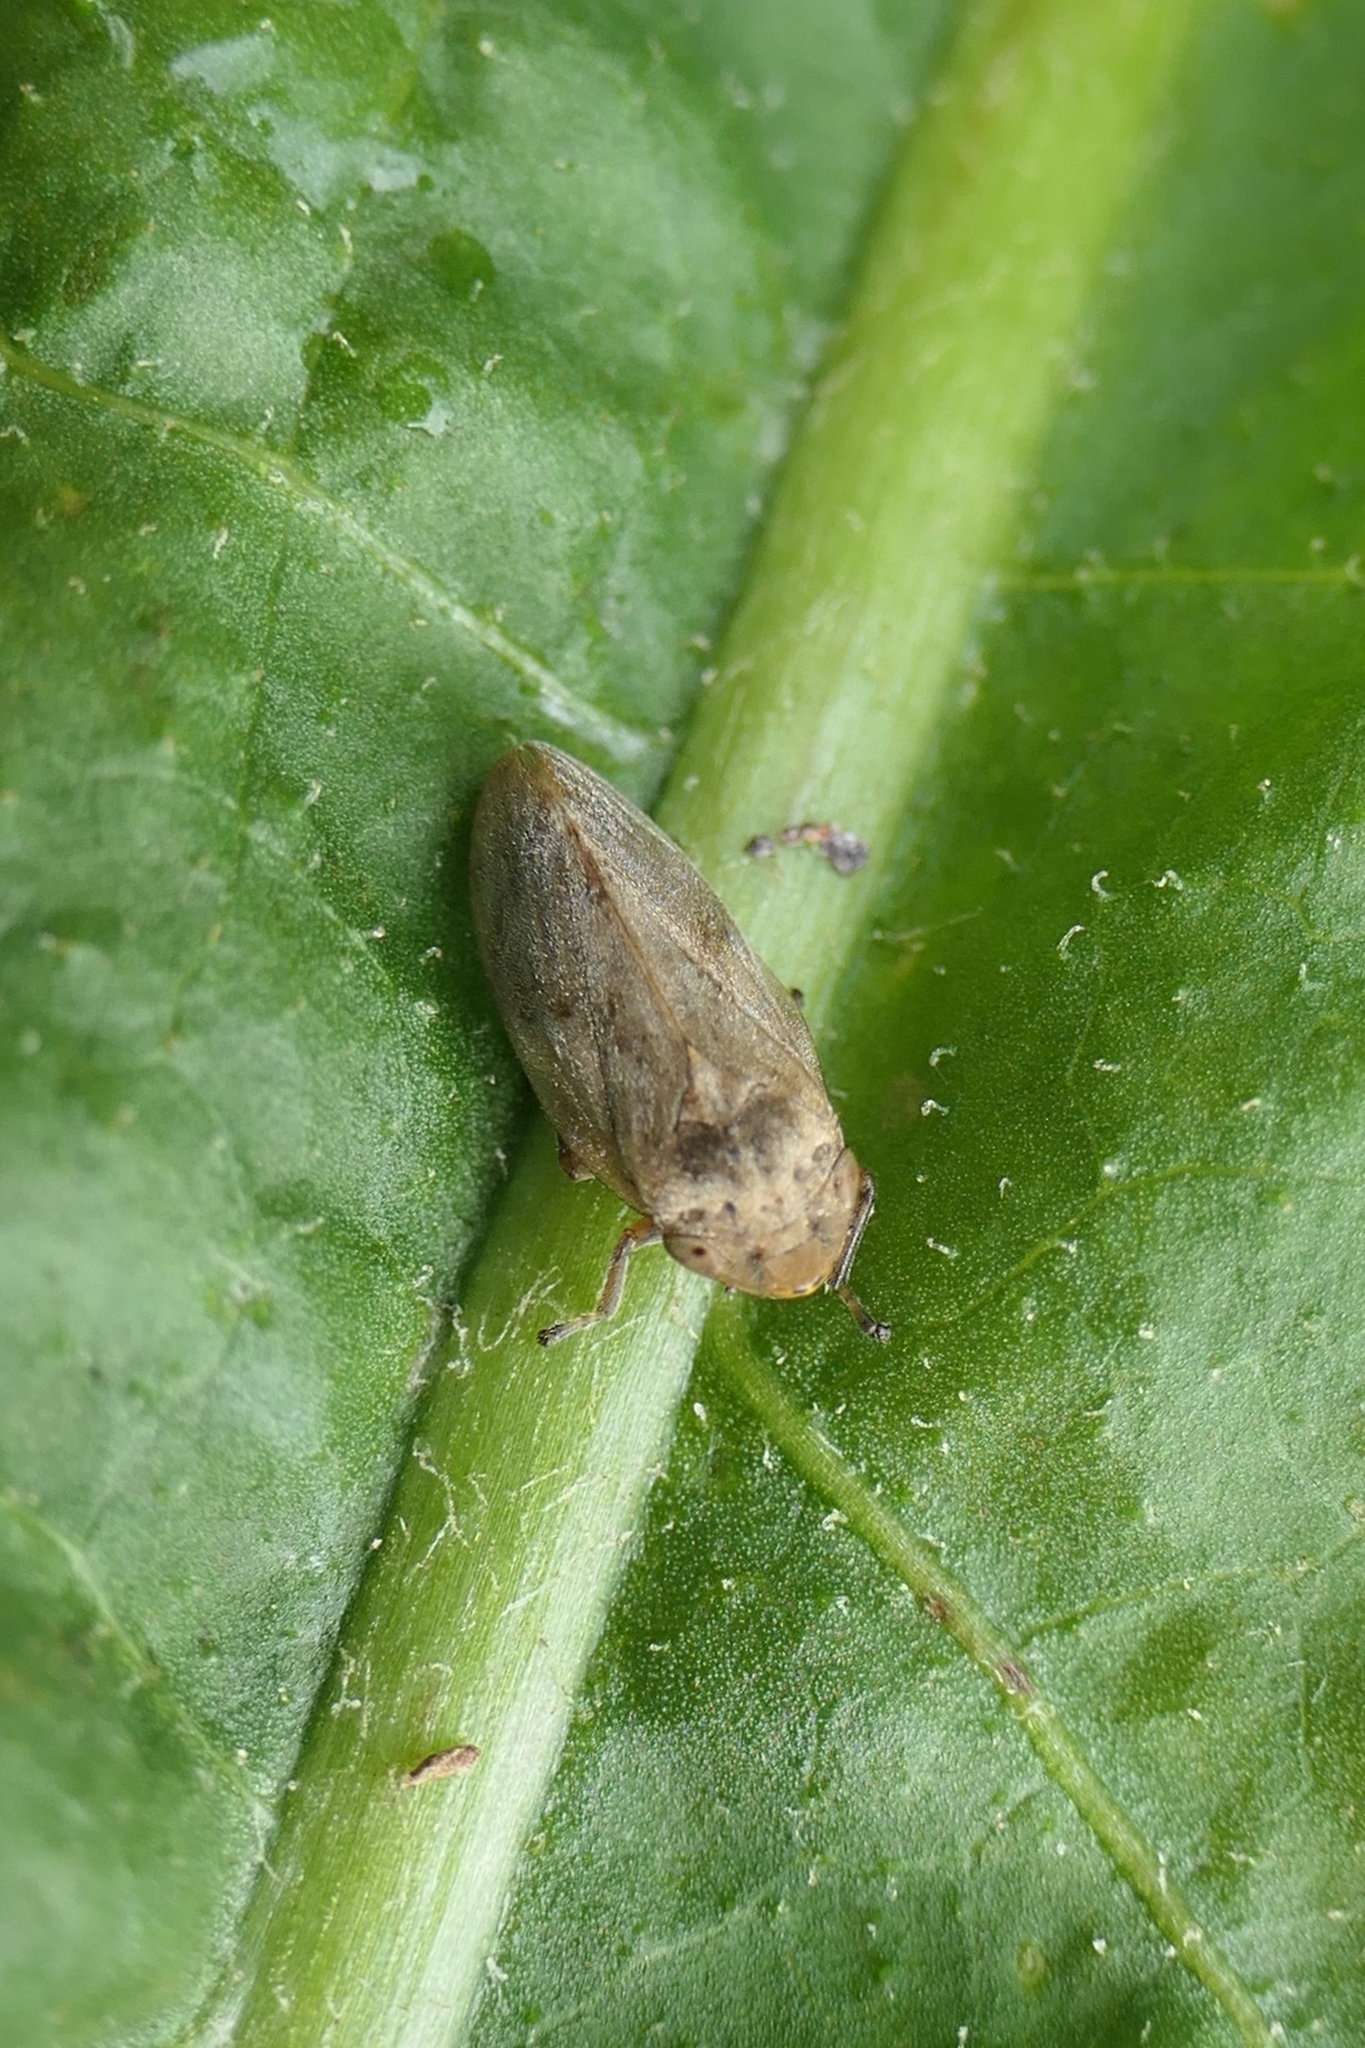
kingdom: Animalia
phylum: Arthropoda
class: Insecta
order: Hemiptera
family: Aphrophoridae
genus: Philaenus
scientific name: Philaenus spumarius
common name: Meadow spittlebug
